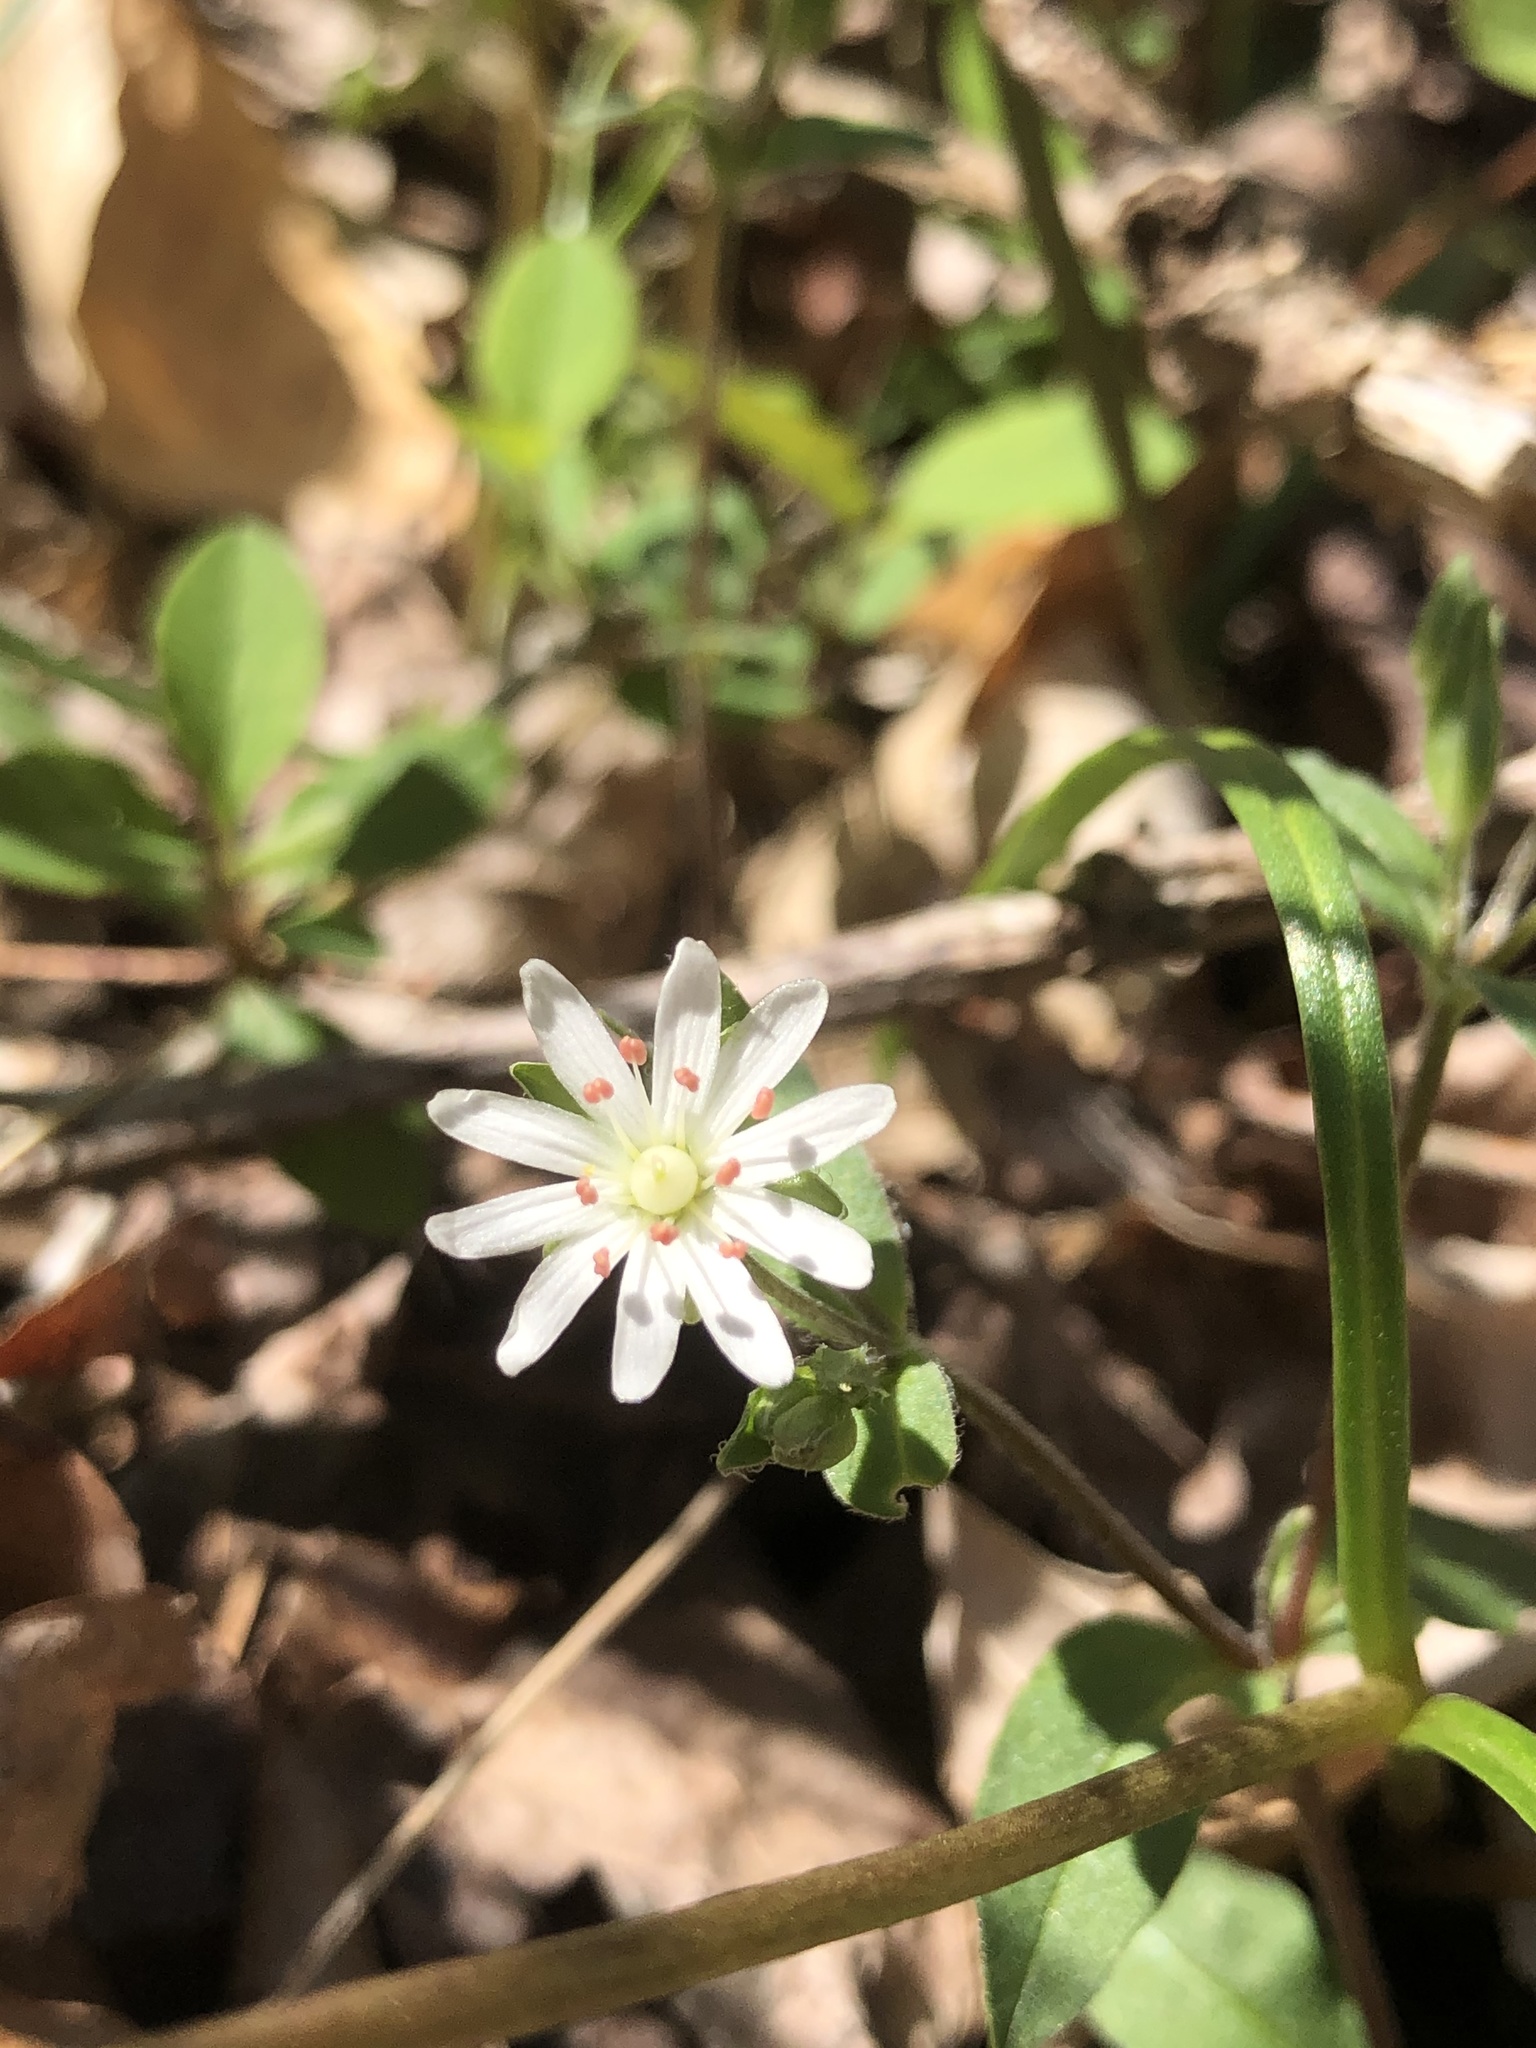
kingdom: Plantae
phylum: Tracheophyta
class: Magnoliopsida
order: Caryophyllales
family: Caryophyllaceae
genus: Stellaria
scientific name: Stellaria pubera
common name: Star chickweed
